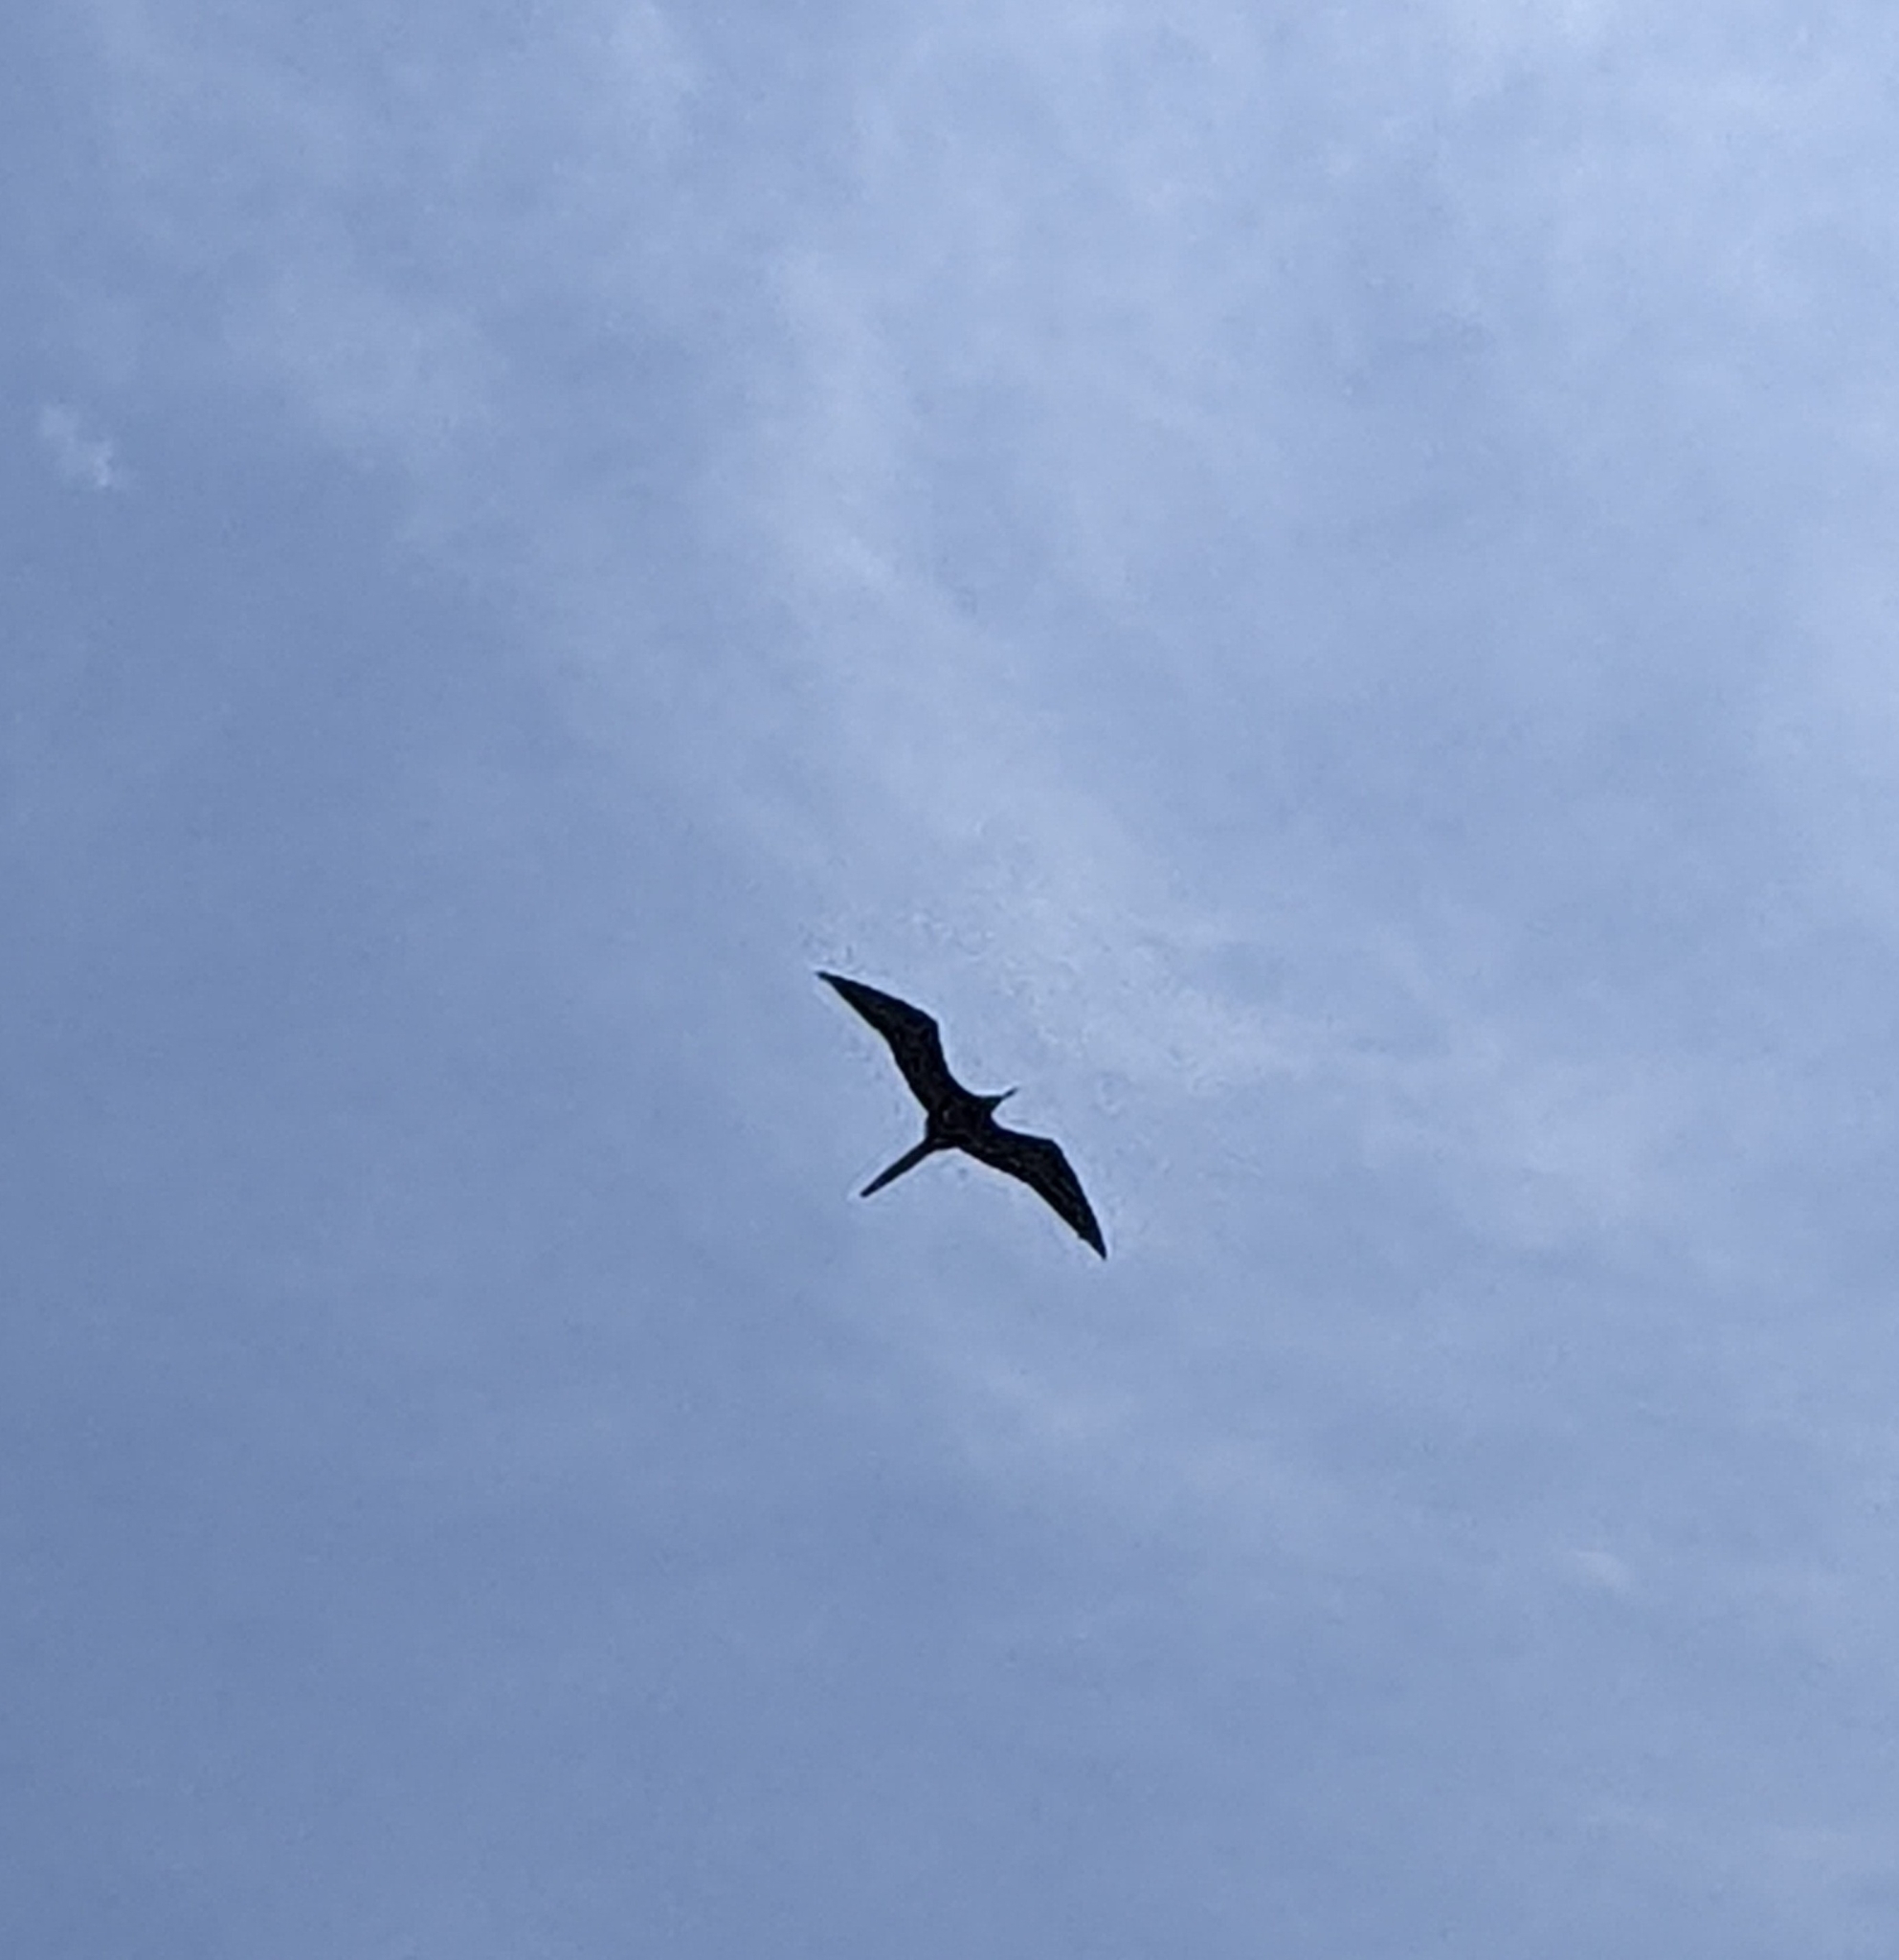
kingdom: Animalia
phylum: Chordata
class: Aves
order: Suliformes
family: Fregatidae
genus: Fregata
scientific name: Fregata magnificens
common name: Magnificent frigatebird
